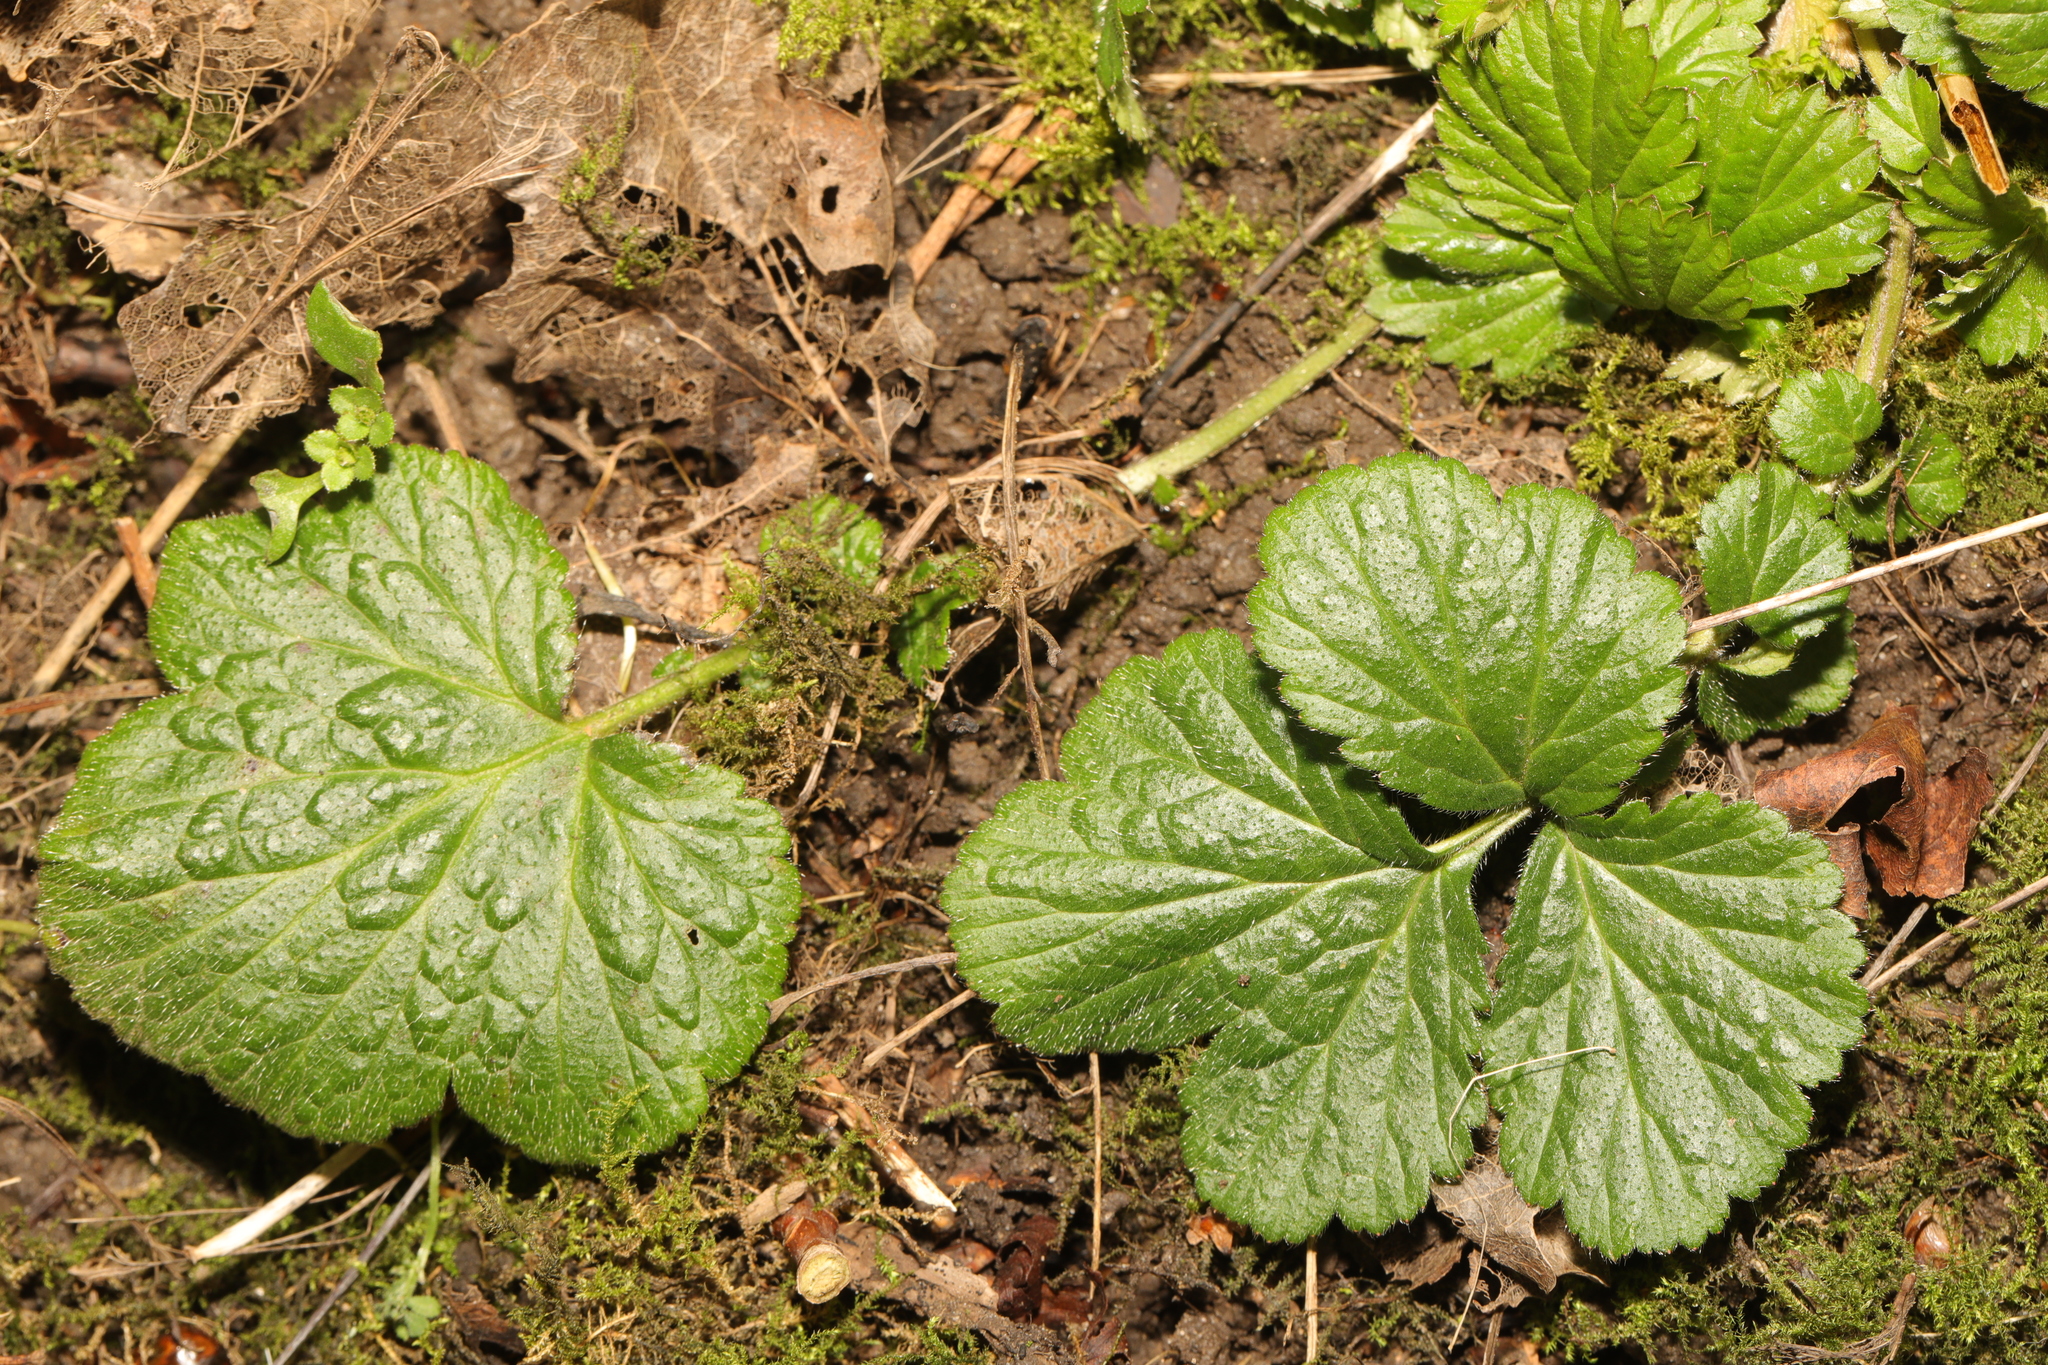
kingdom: Plantae
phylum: Tracheophyta
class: Magnoliopsida
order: Rosales
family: Rosaceae
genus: Geum
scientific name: Geum urbanum
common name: Wood avens
